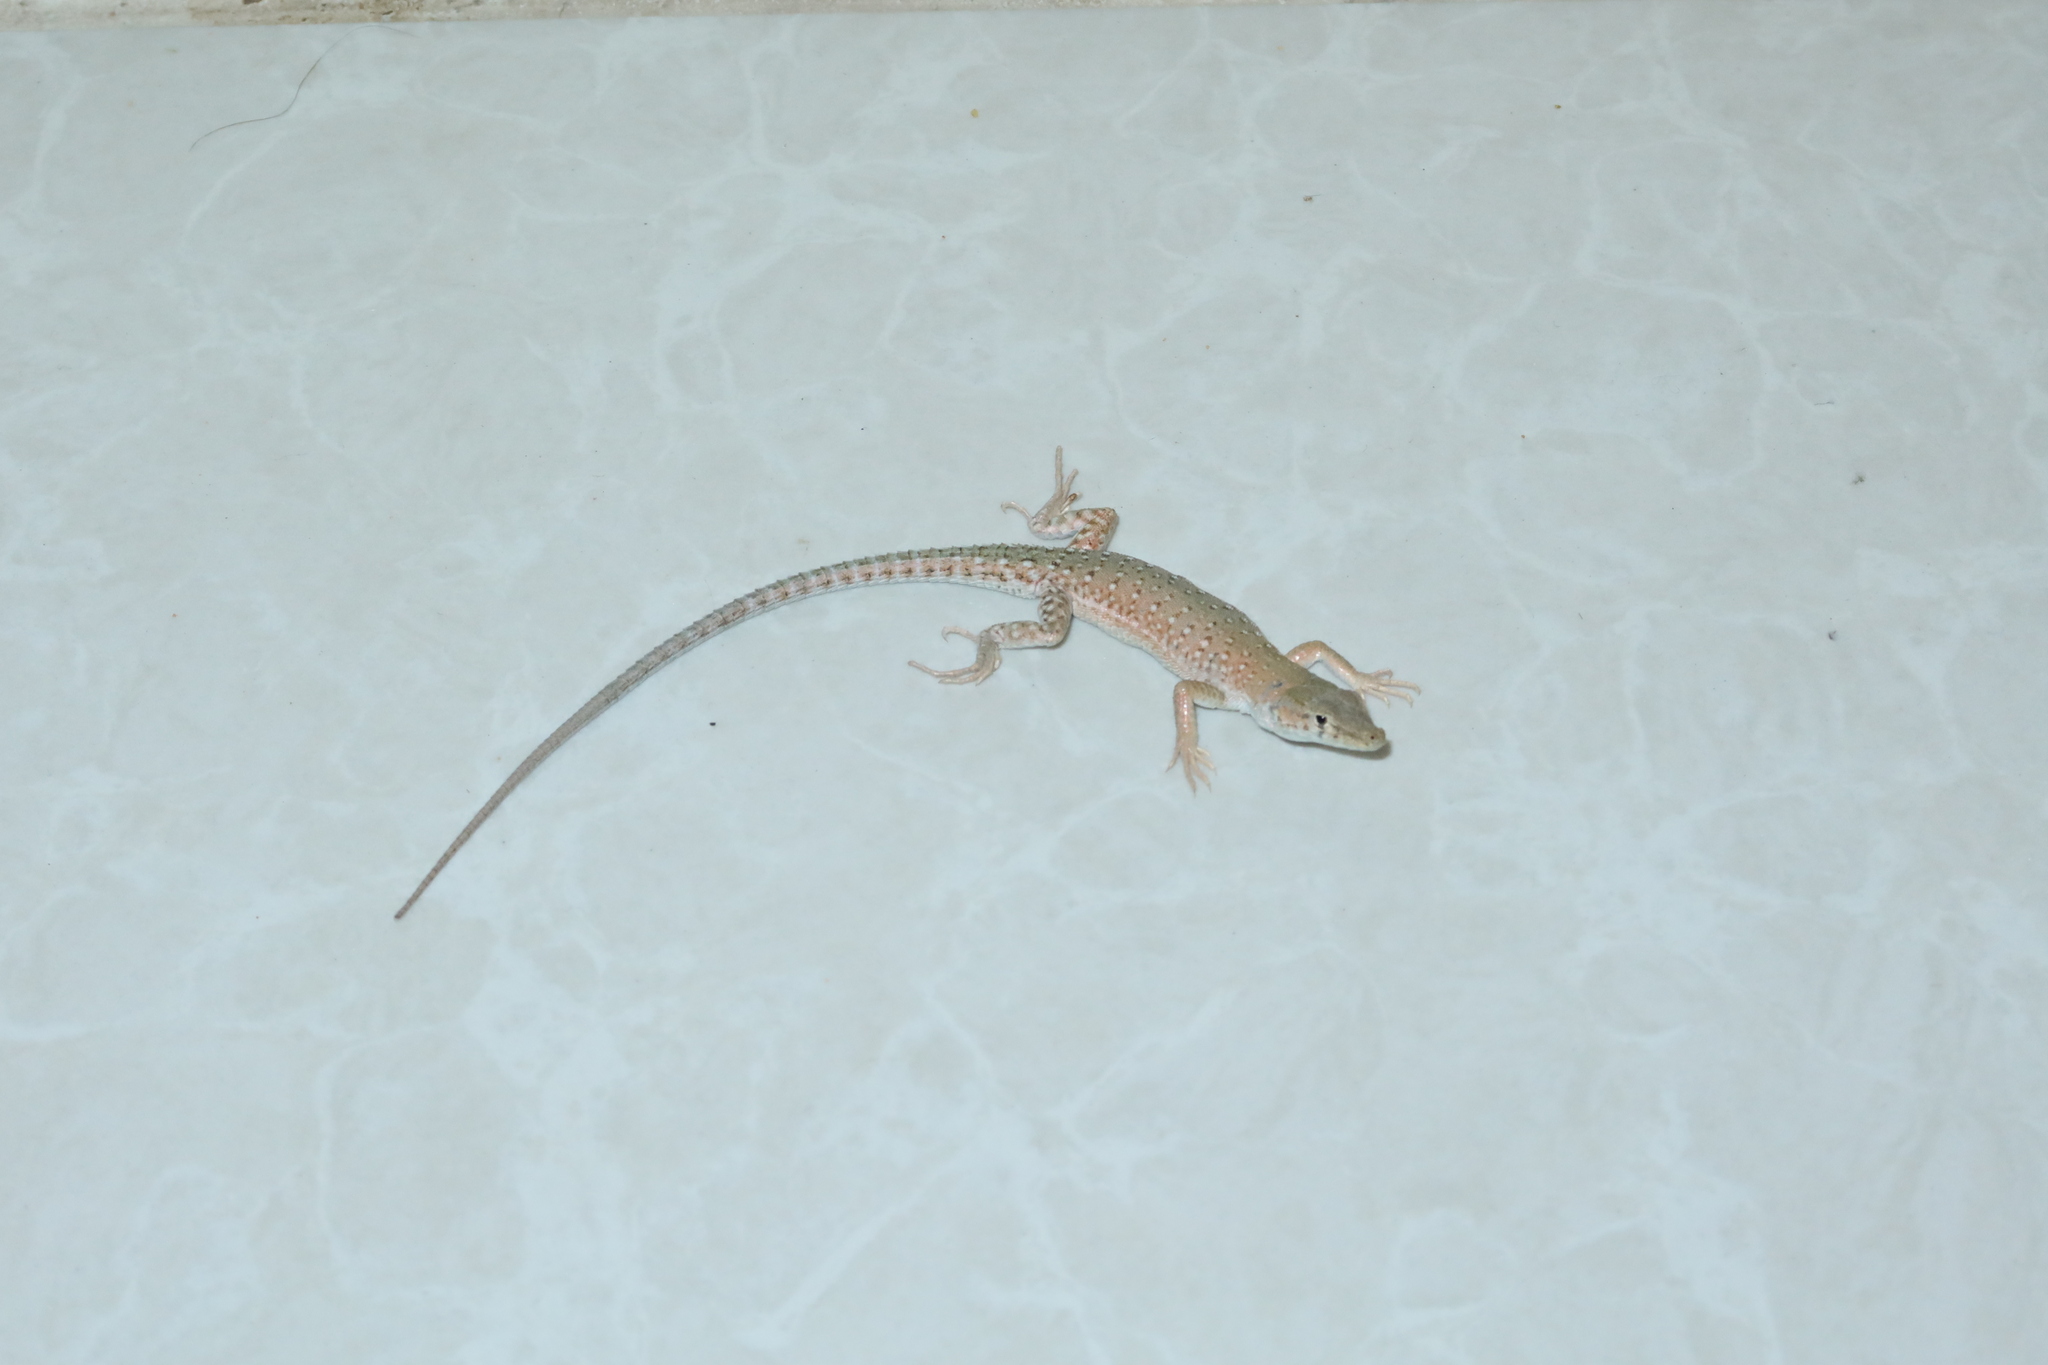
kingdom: Animalia
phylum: Chordata
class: Squamata
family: Lacertidae
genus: Mesalina
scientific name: Mesalina guttulata
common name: Desert lacerta
